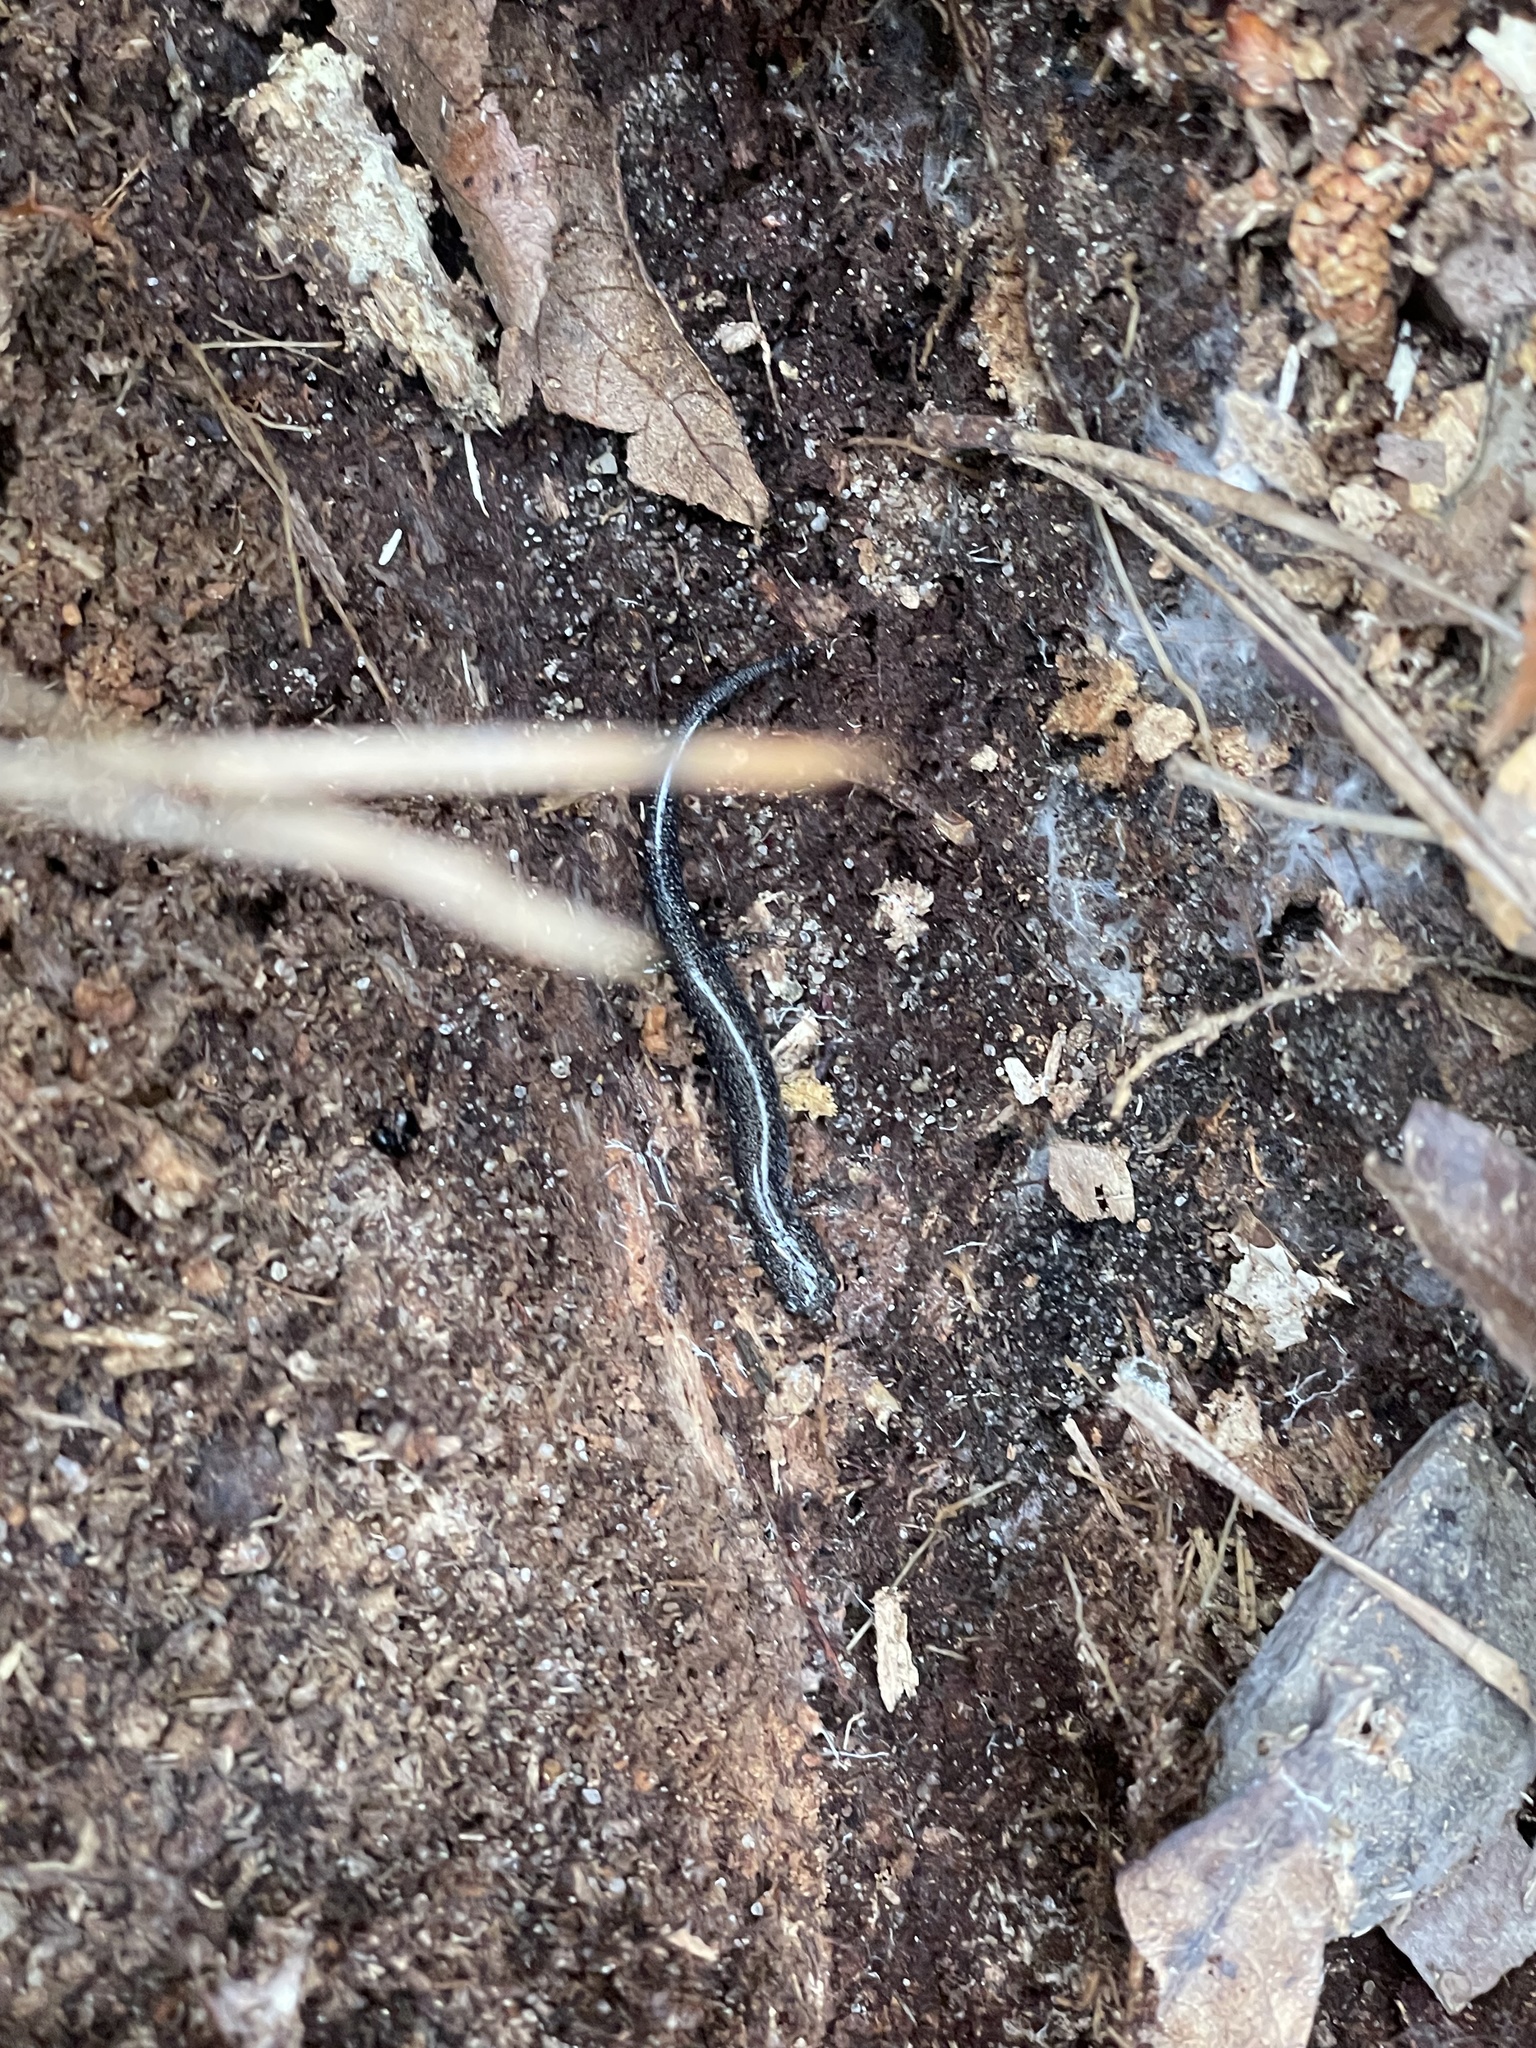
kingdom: Animalia
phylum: Chordata
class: Amphibia
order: Caudata
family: Plethodontidae
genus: Plethodon
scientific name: Plethodon cinereus
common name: Redback salamander
